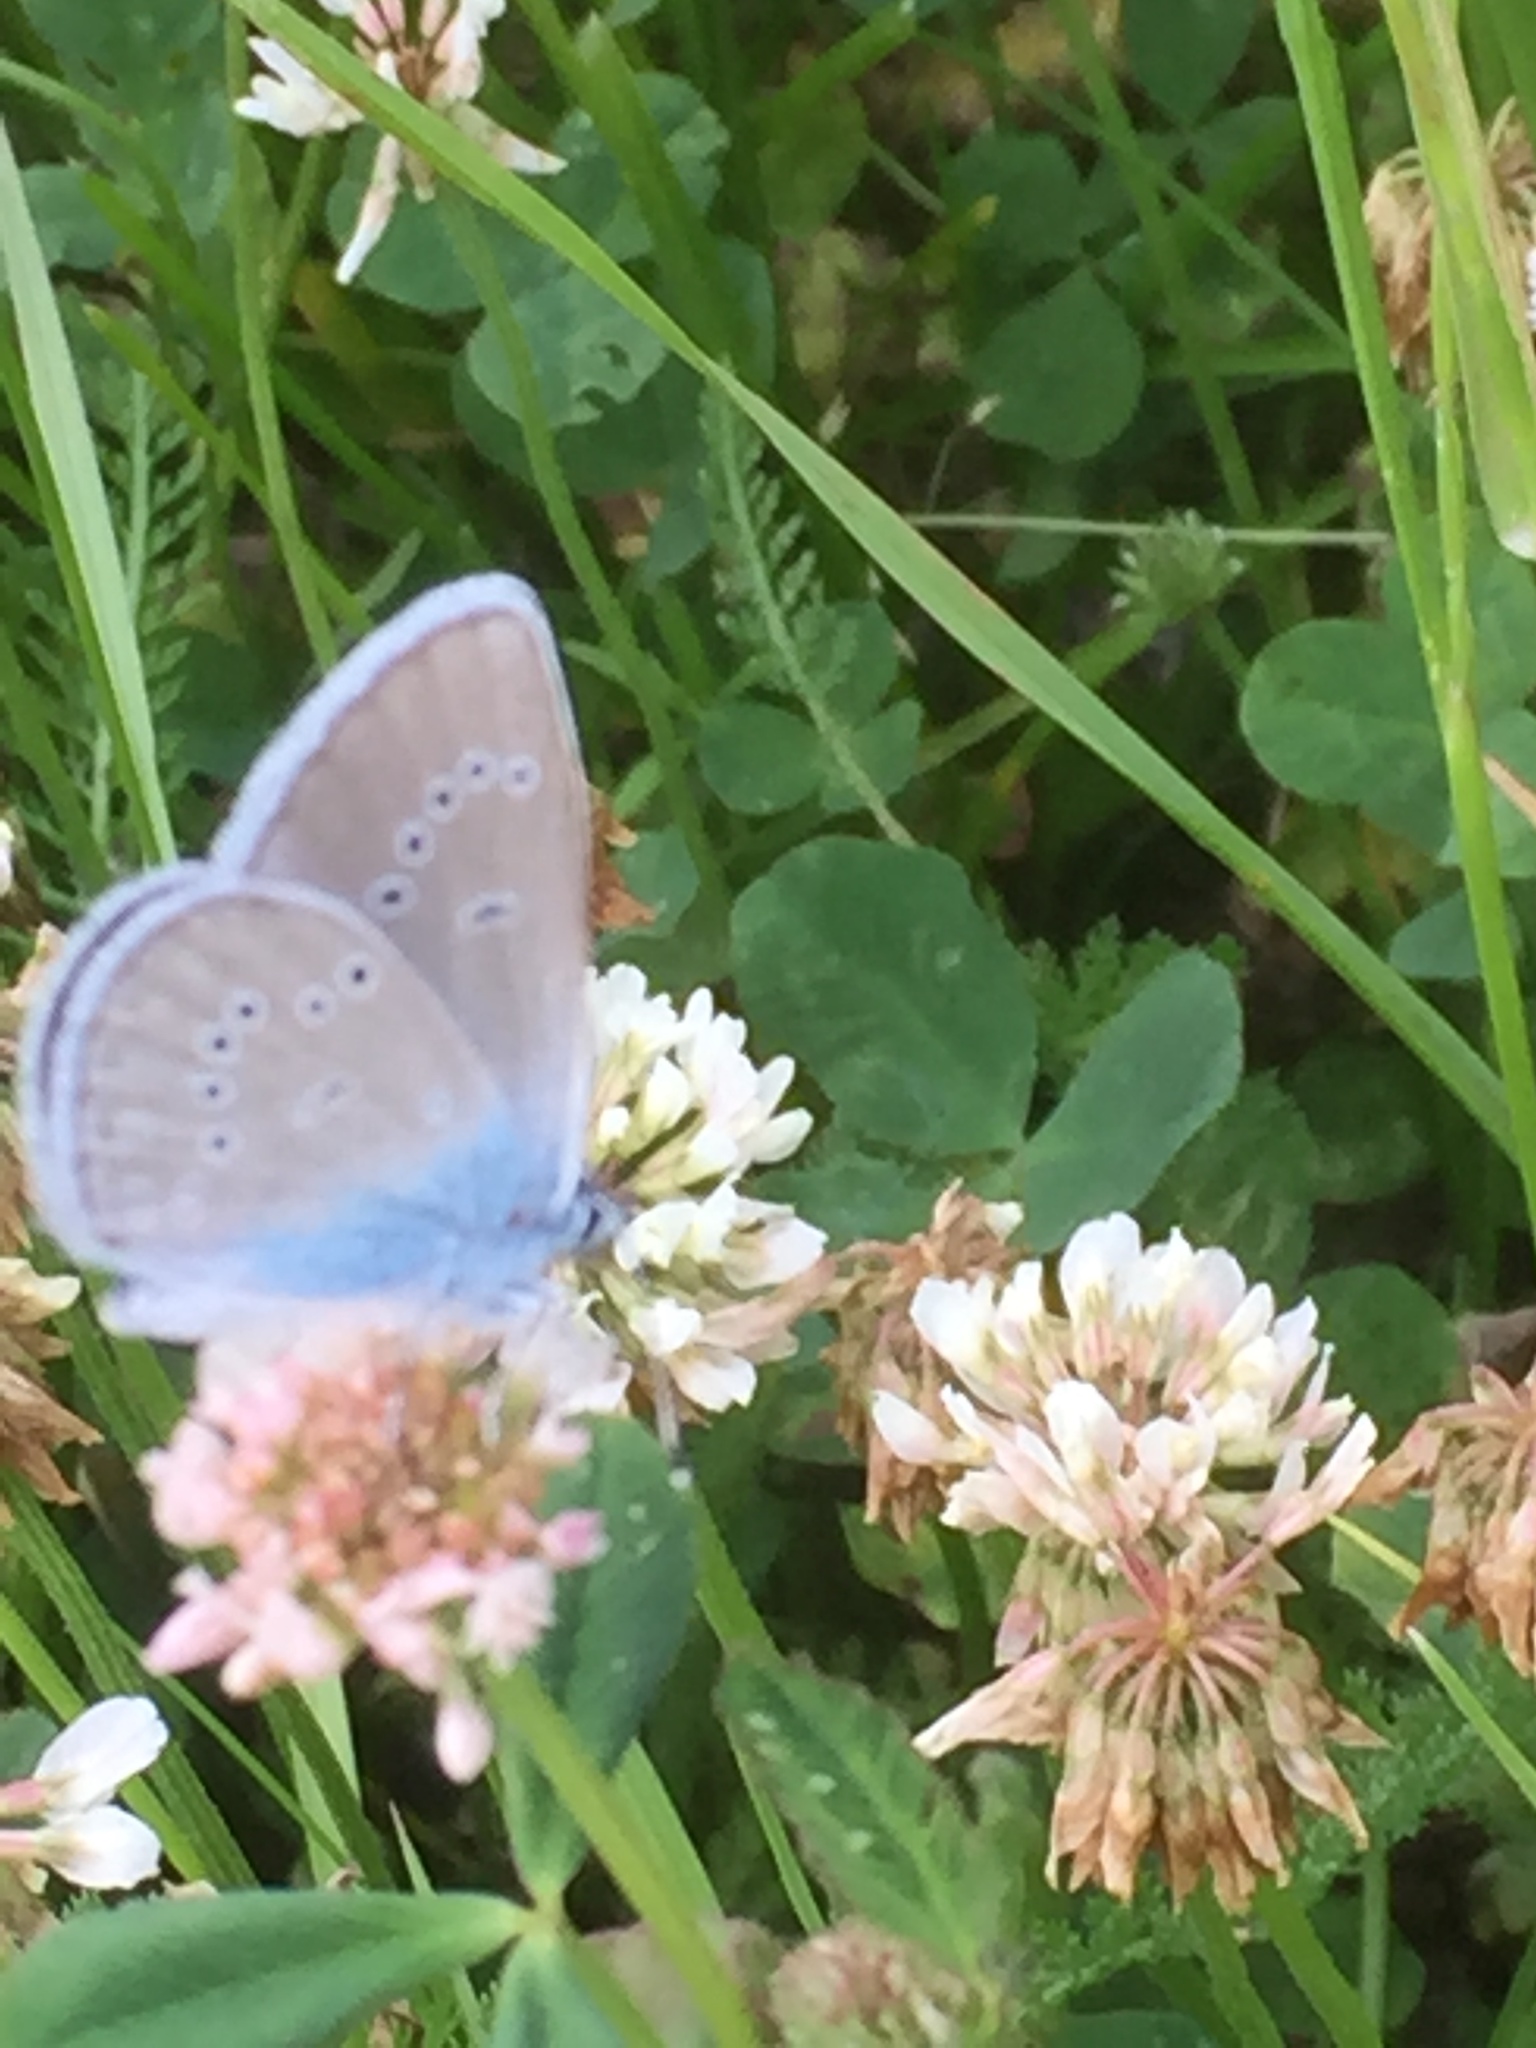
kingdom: Animalia
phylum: Arthropoda
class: Insecta
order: Lepidoptera
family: Lycaenidae
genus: Cyaniris
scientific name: Cyaniris semiargus
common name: Mazarine blue
